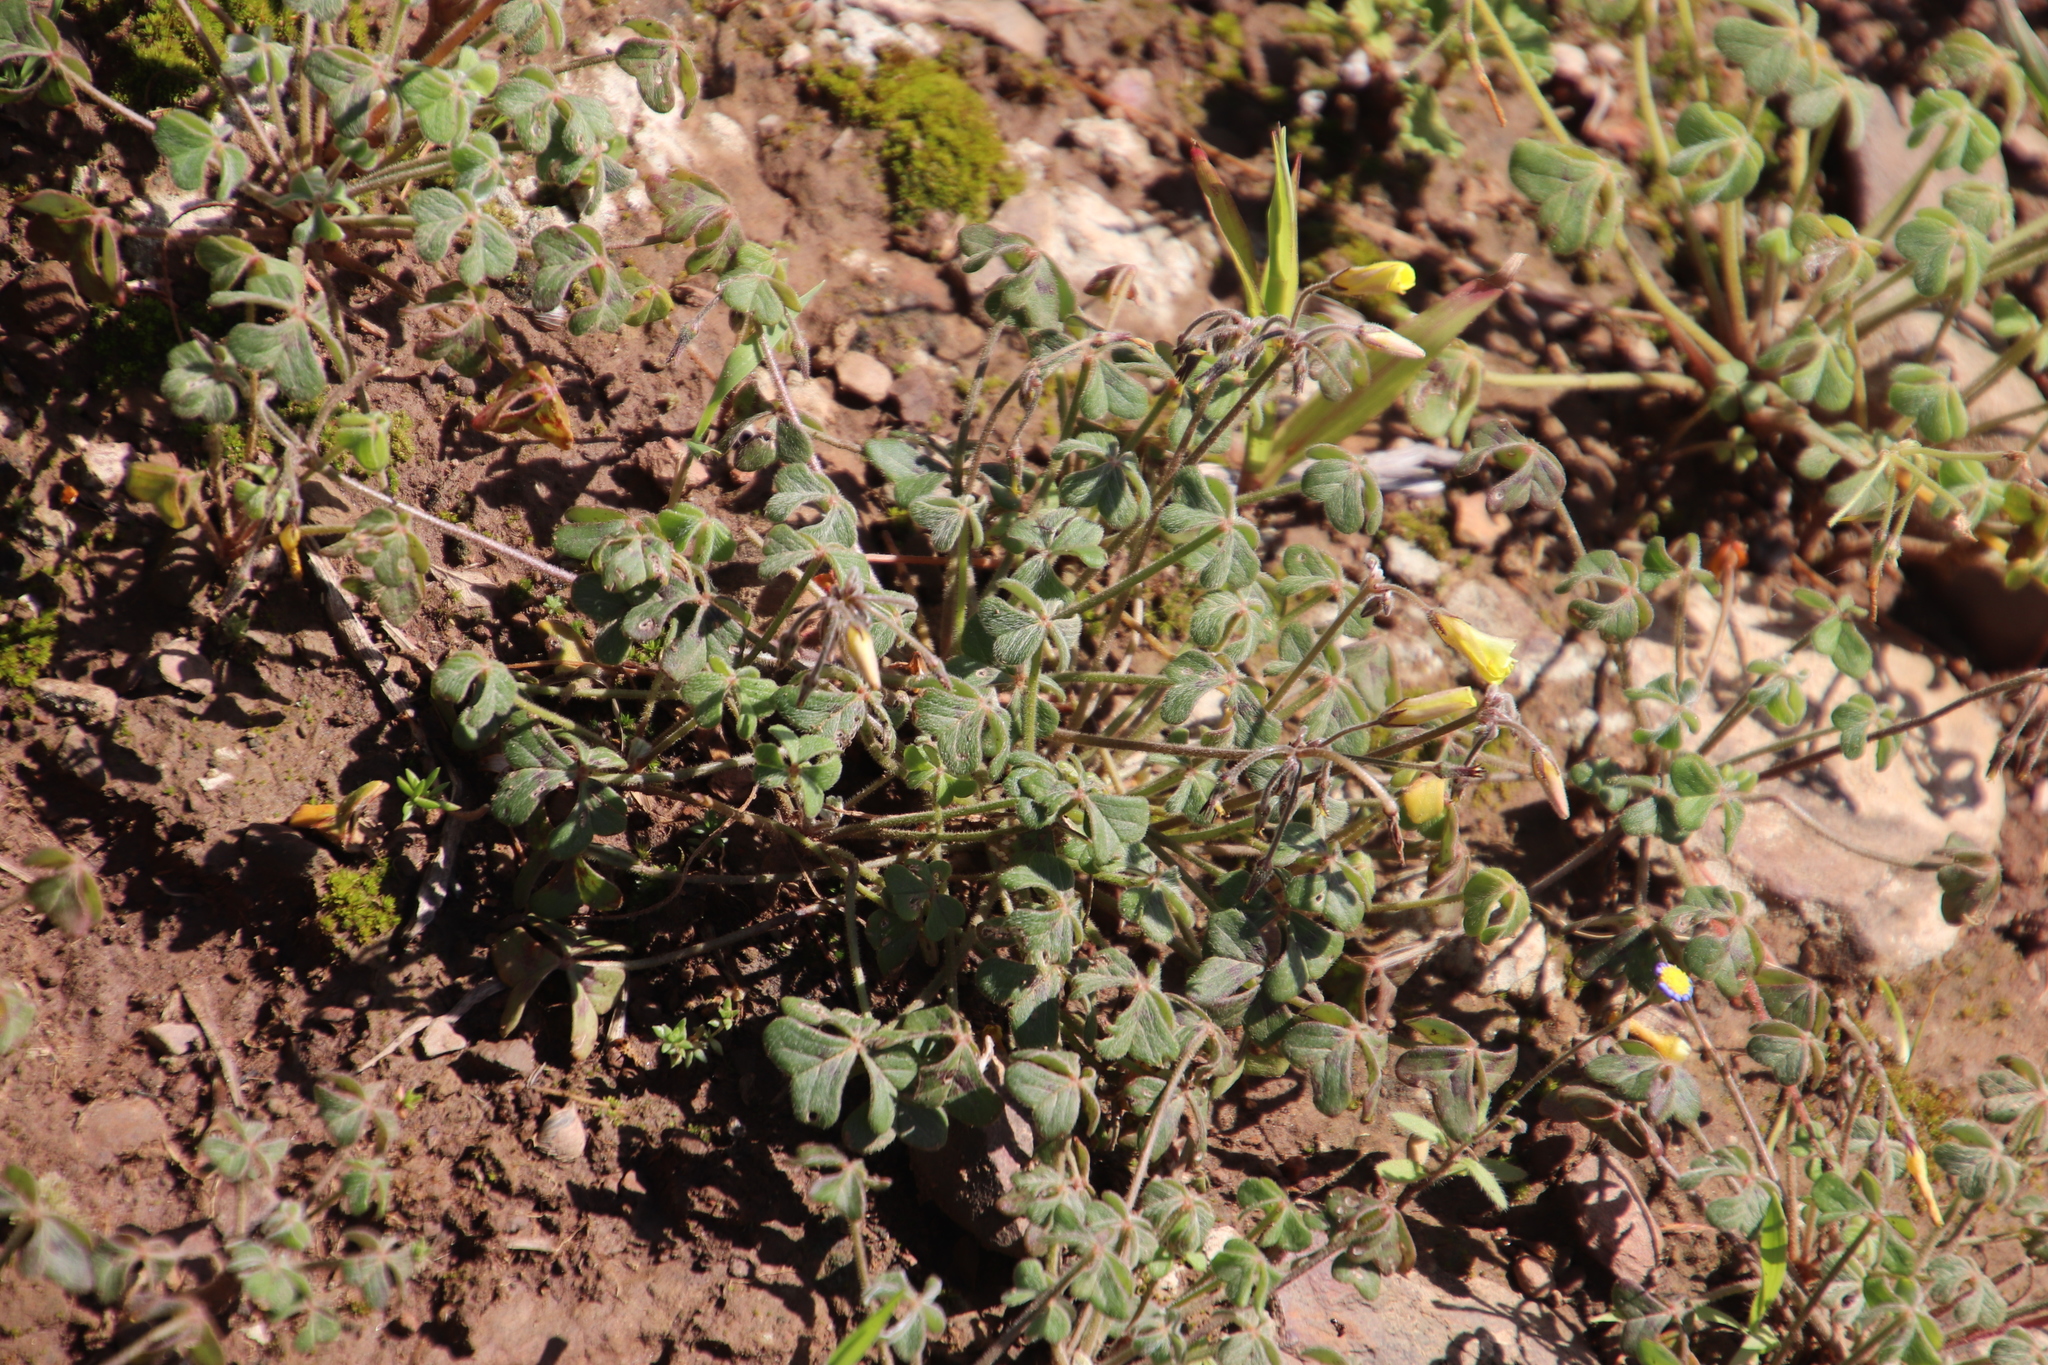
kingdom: Plantae
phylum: Tracheophyta
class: Magnoliopsida
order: Oxalidales
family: Oxalidaceae
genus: Oxalis
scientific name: Oxalis pes-caprae
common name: Bermuda-buttercup
